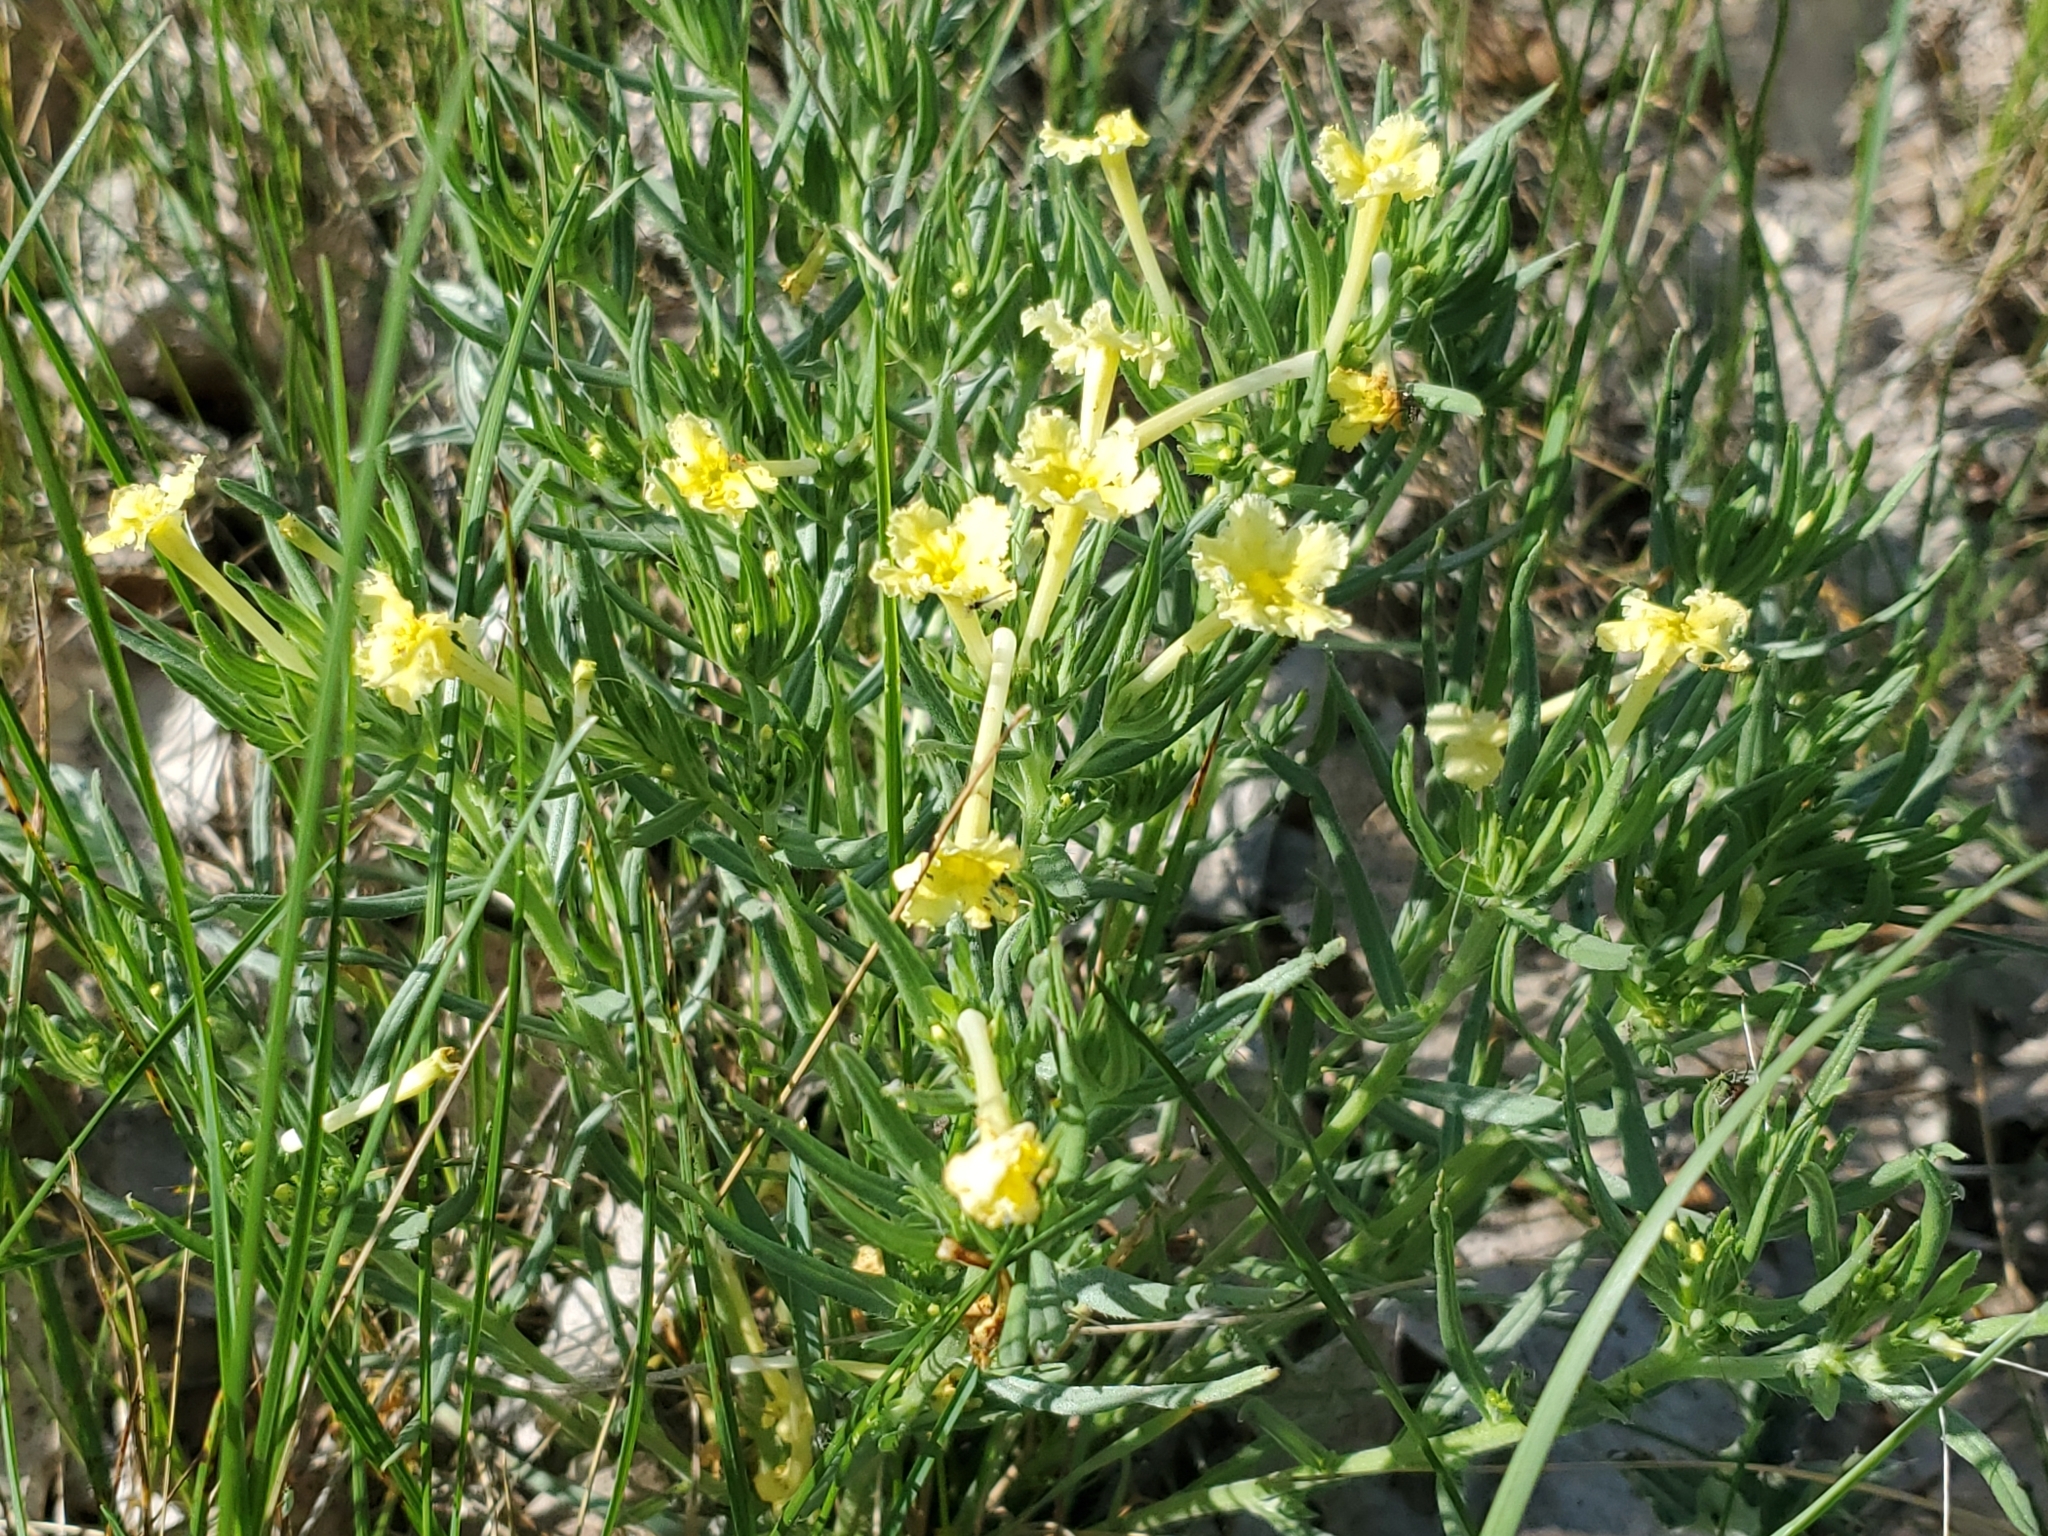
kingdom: Plantae
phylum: Tracheophyta
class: Magnoliopsida
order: Boraginales
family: Boraginaceae
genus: Lithospermum
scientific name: Lithospermum incisum
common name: Fringed gromwell
